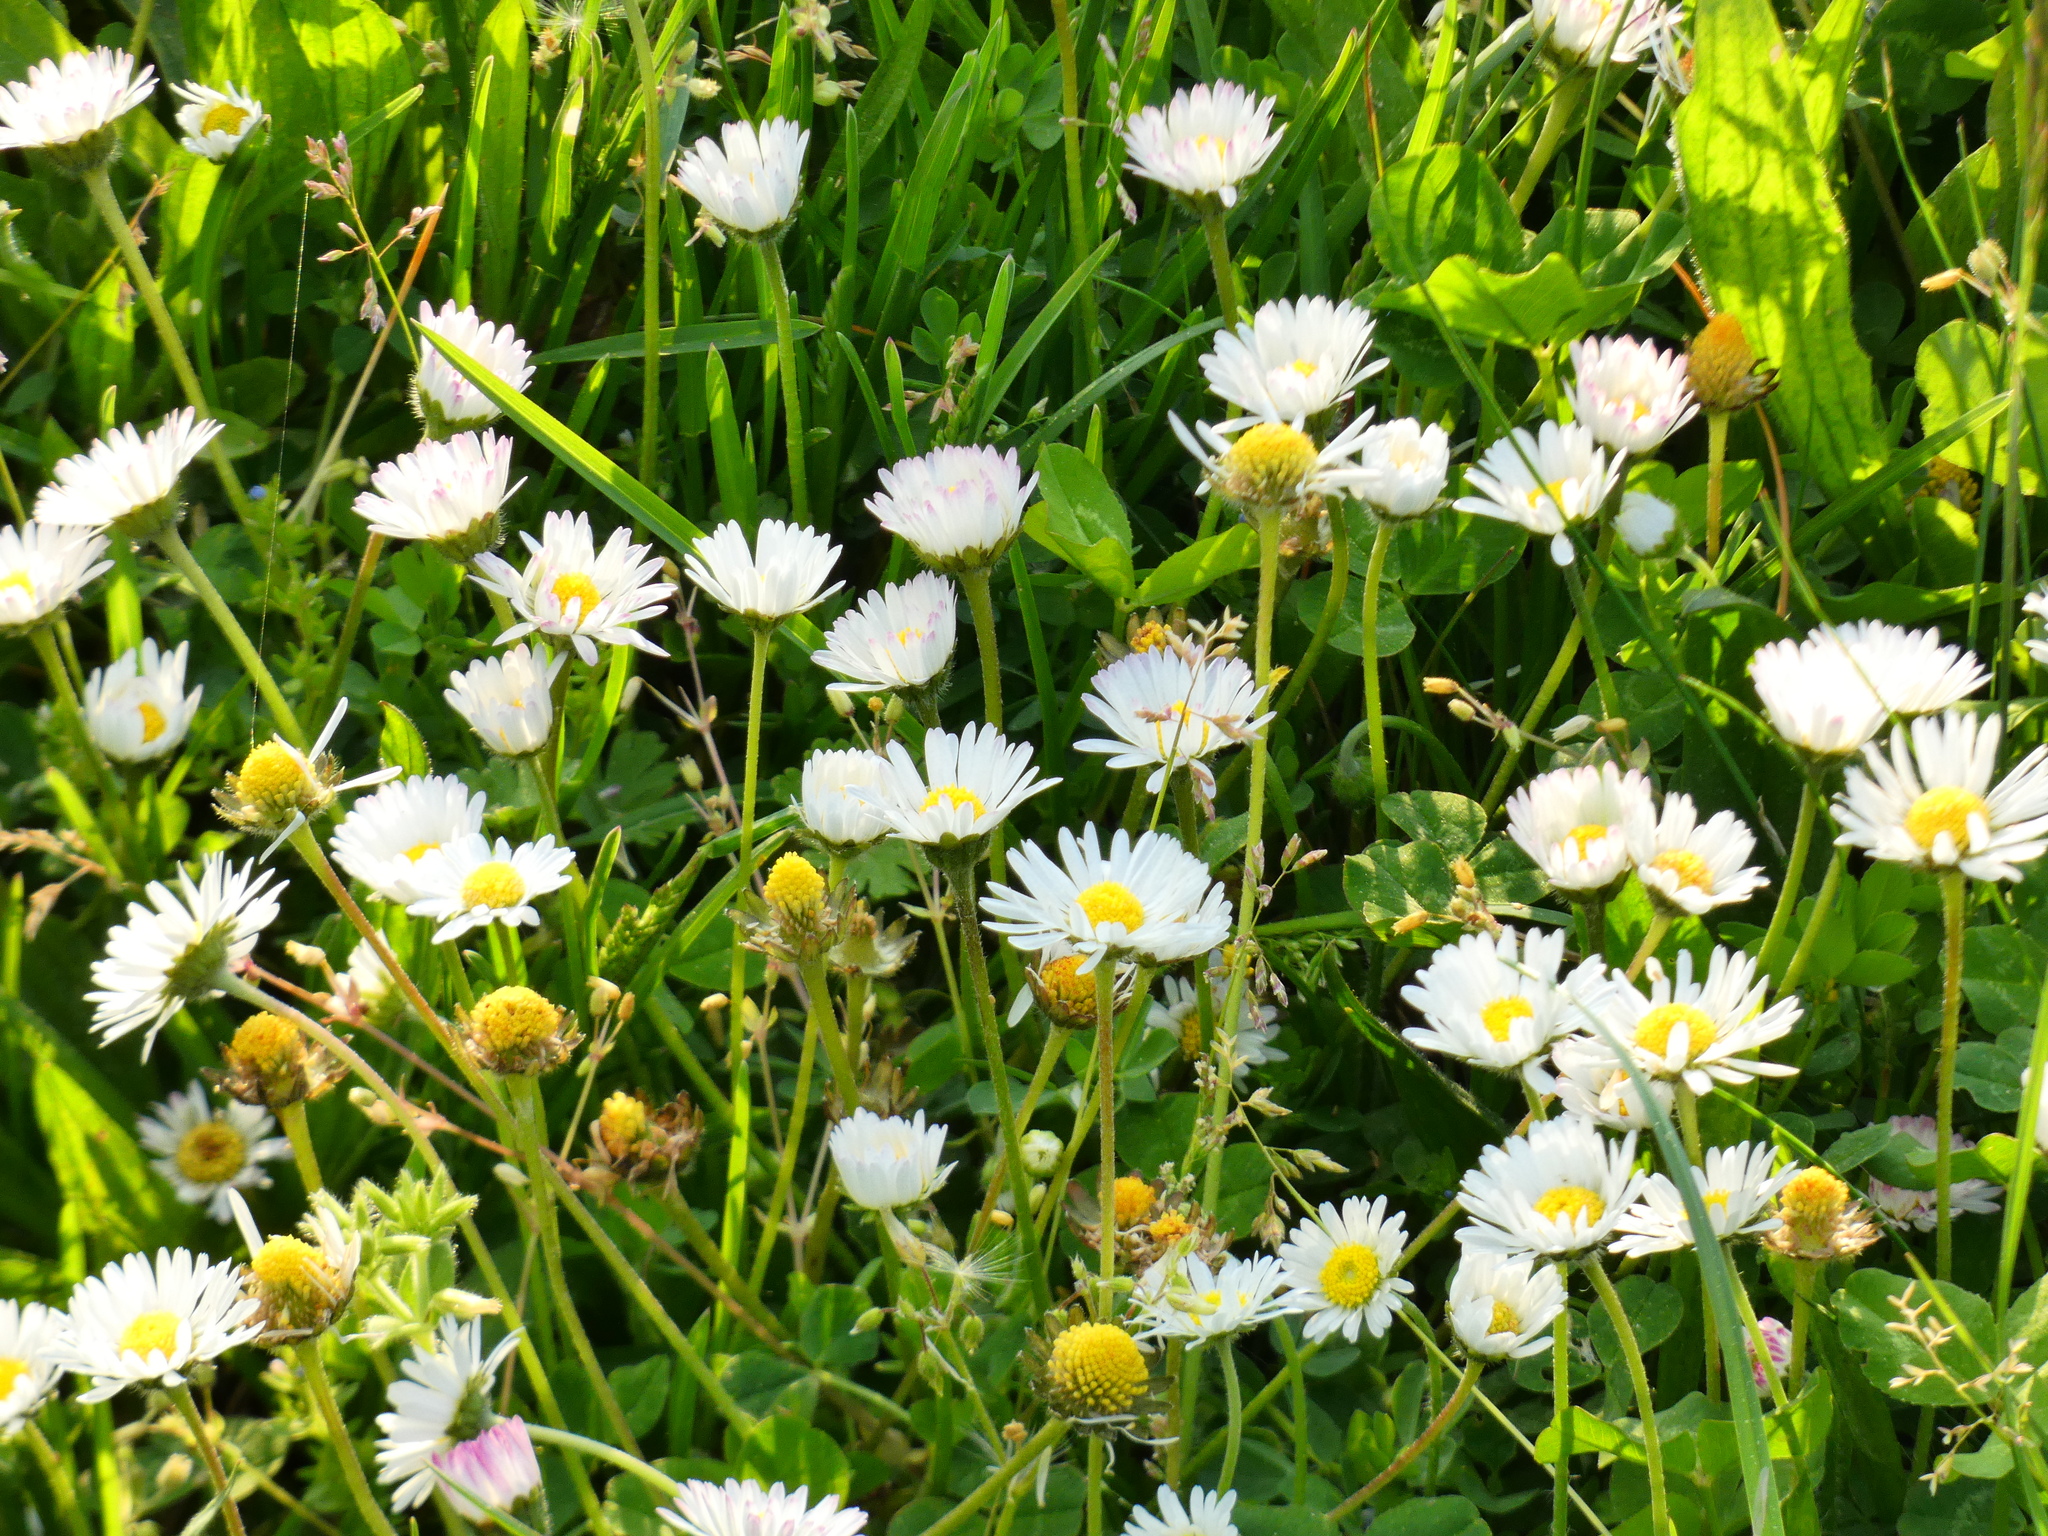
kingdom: Plantae
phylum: Tracheophyta
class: Magnoliopsida
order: Asterales
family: Asteraceae
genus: Bellis
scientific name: Bellis perennis
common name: Lawndaisy
